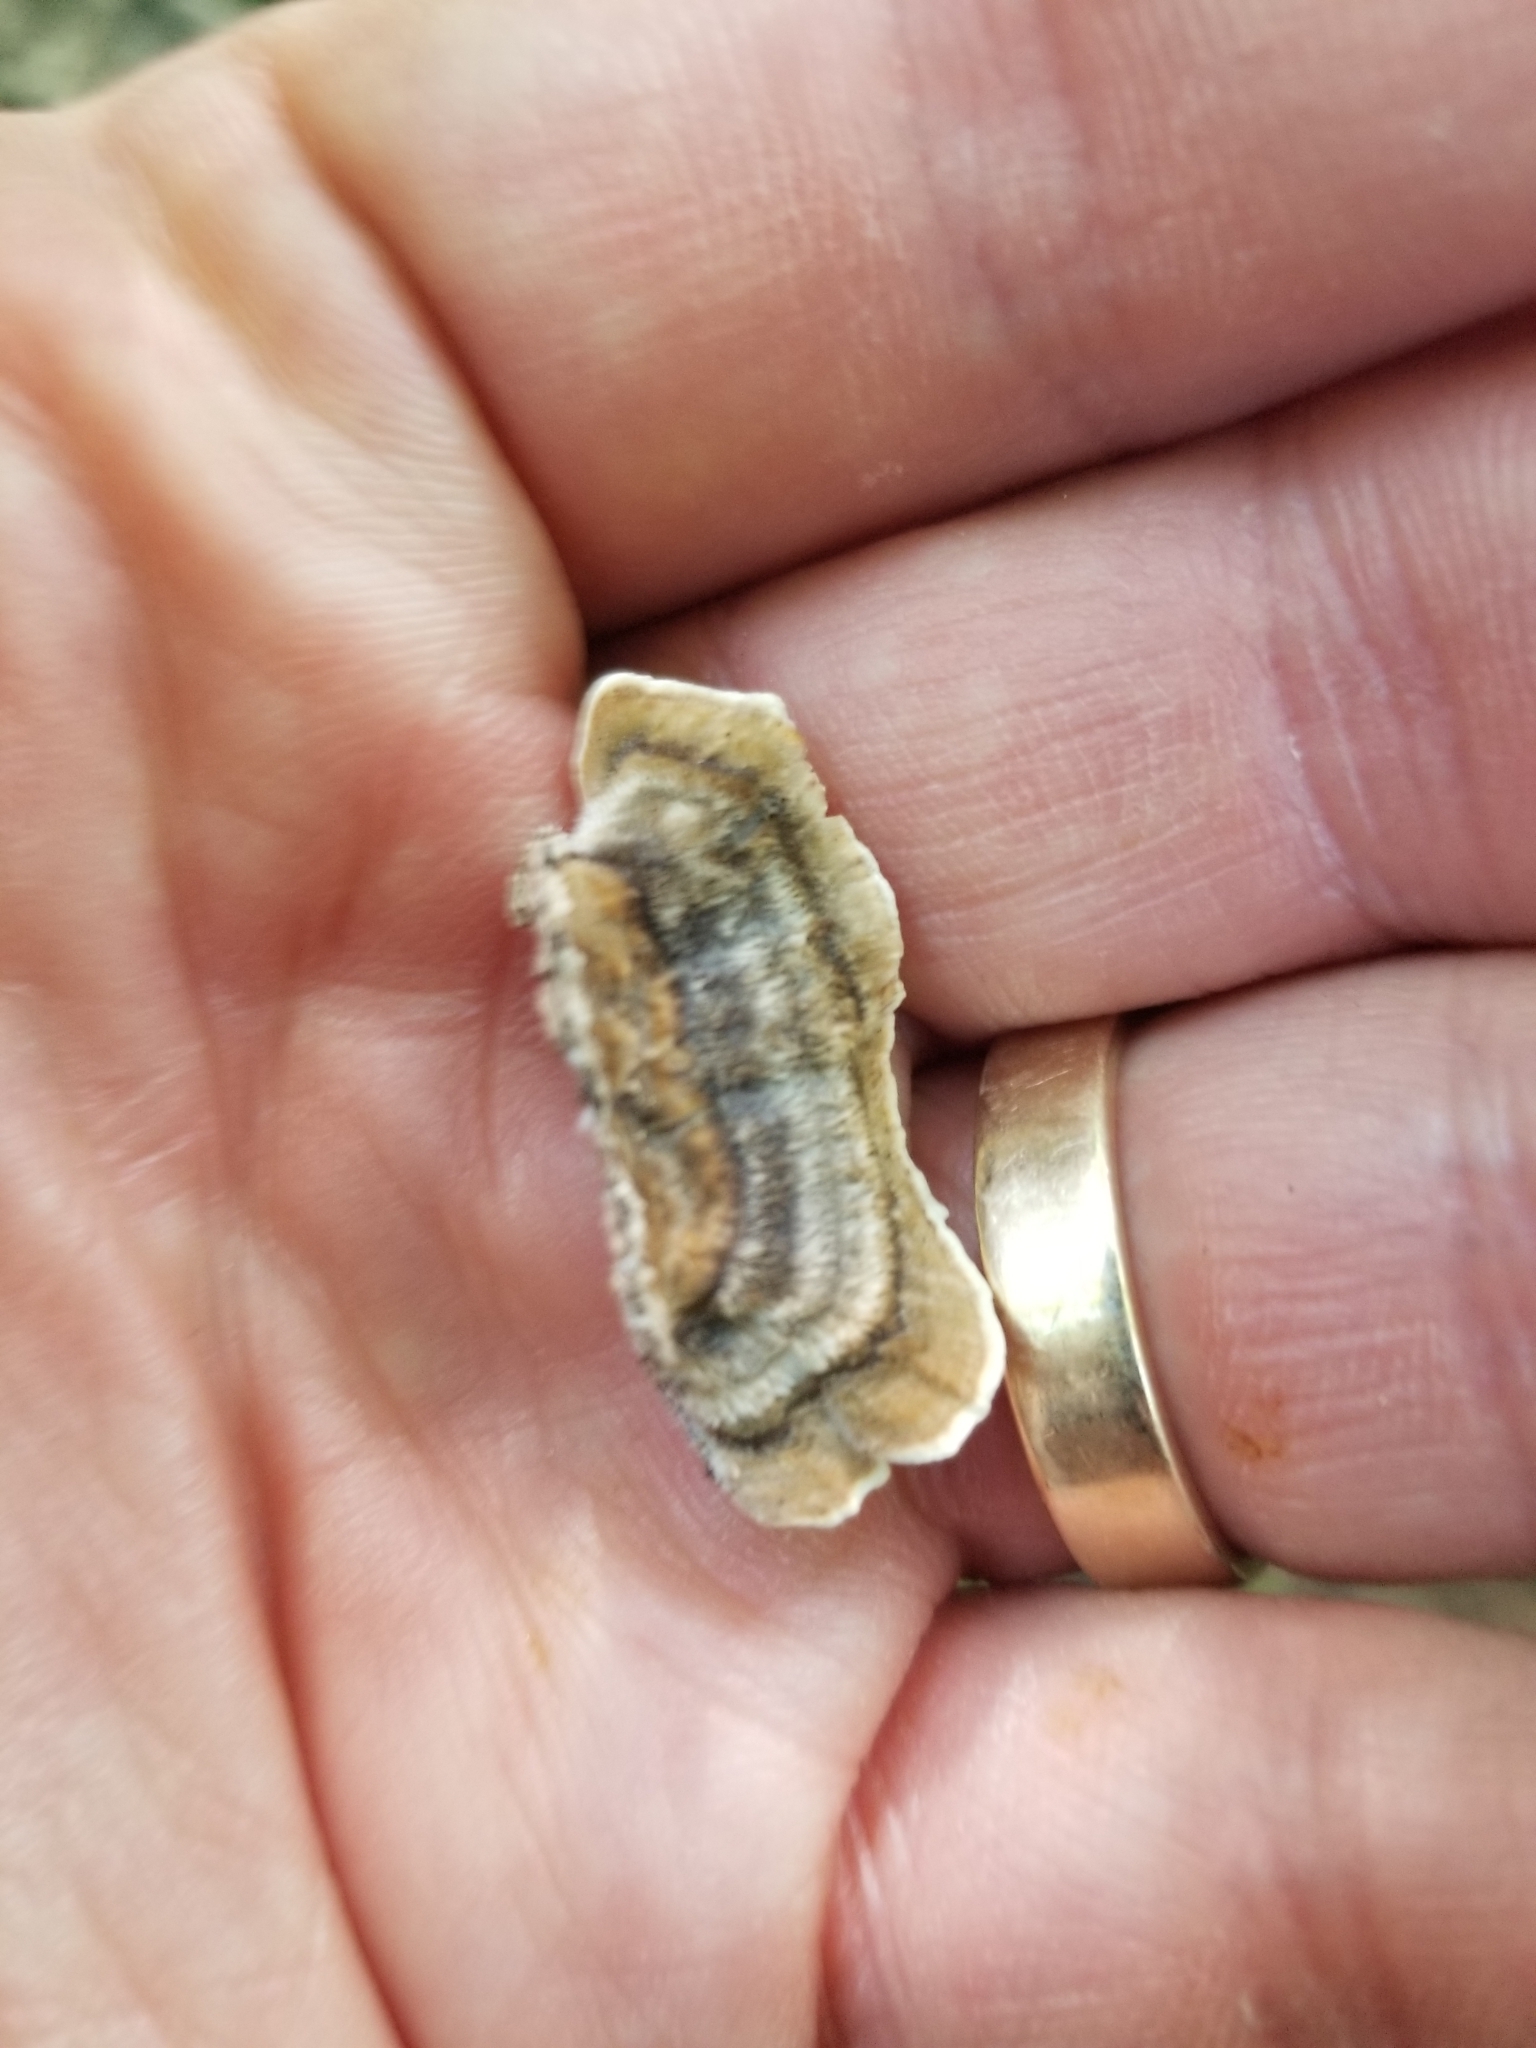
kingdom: Fungi
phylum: Basidiomycota
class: Agaricomycetes
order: Polyporales
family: Polyporaceae
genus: Trametes
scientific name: Trametes versicolor
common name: Turkeytail
